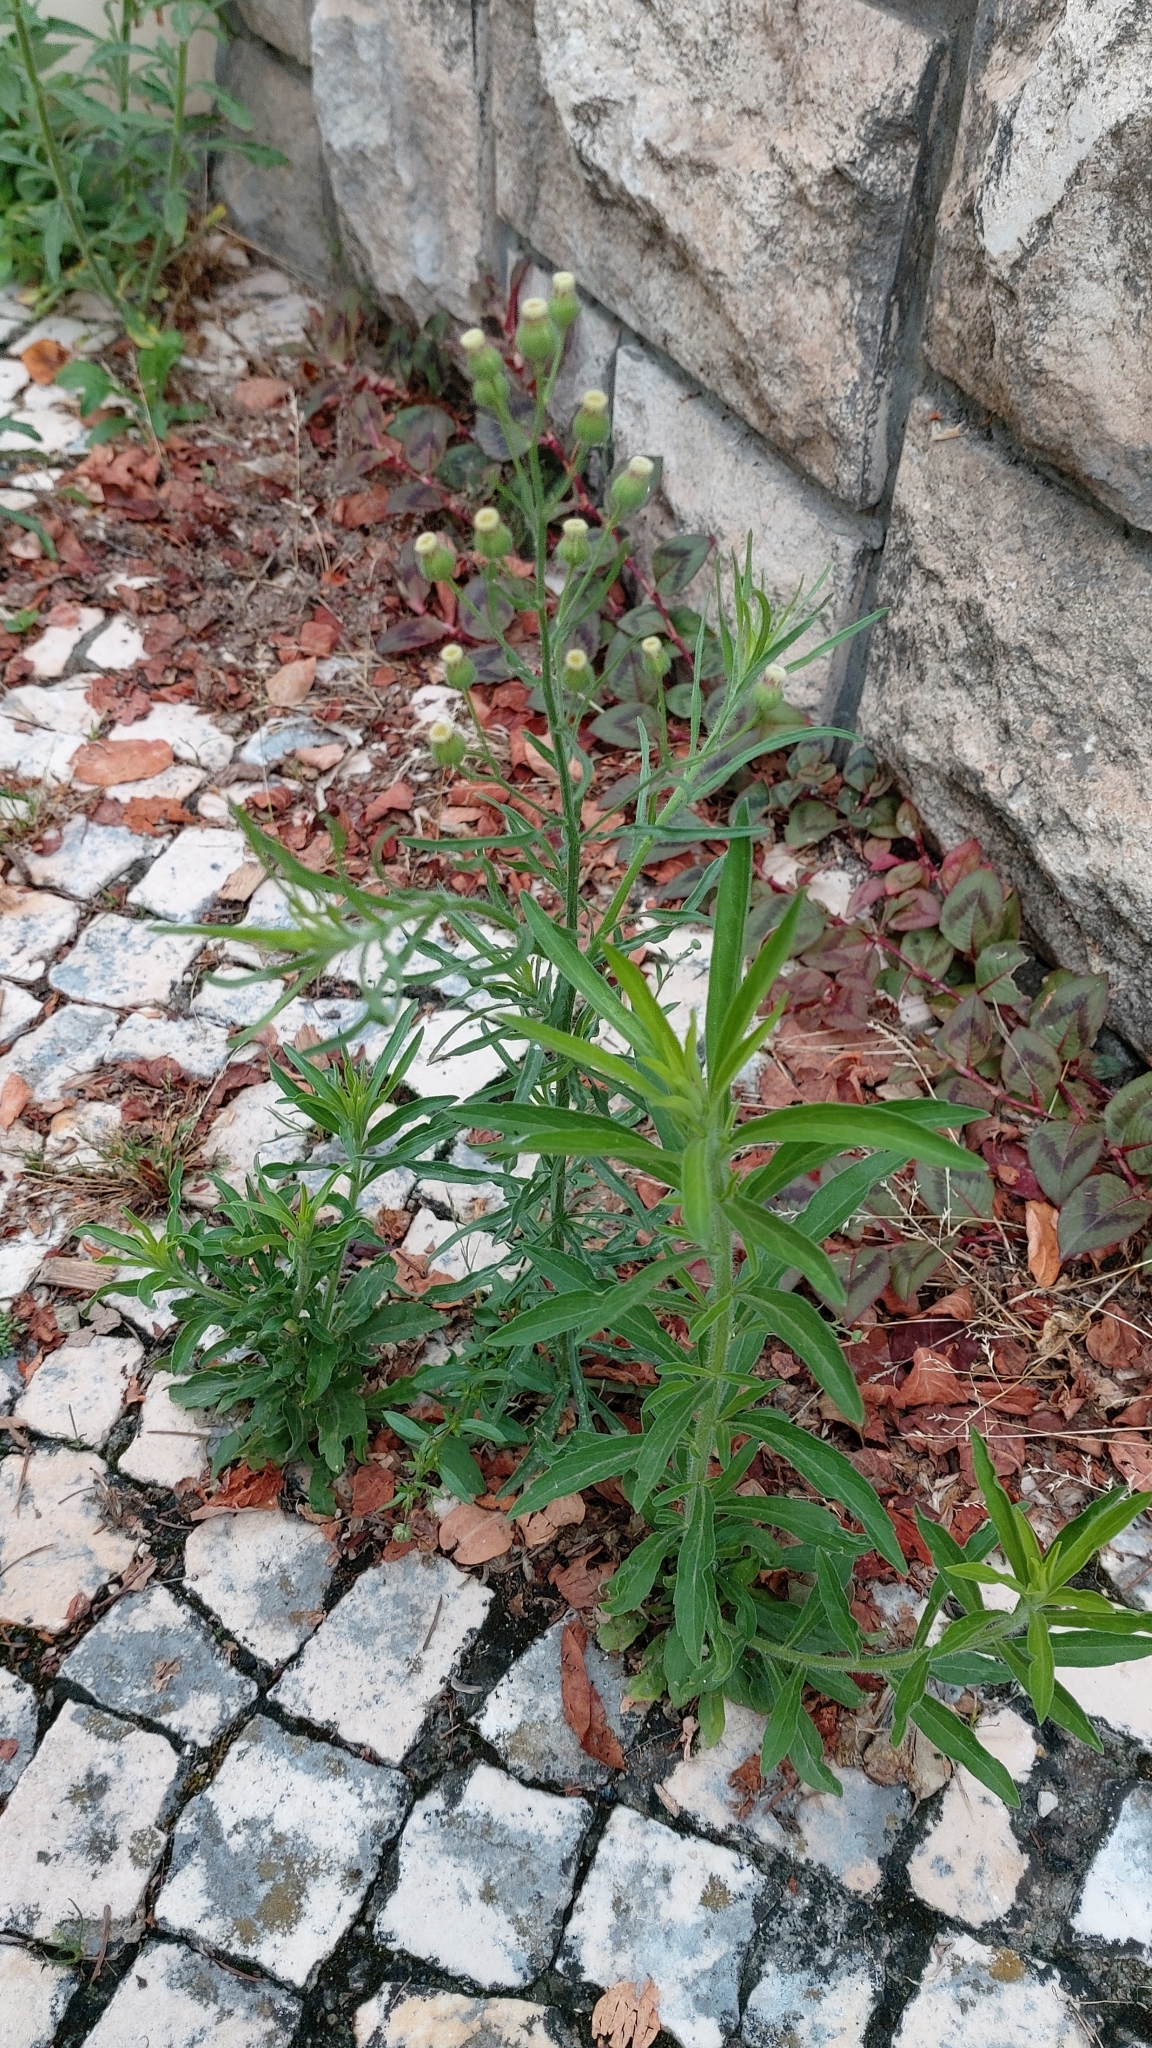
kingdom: Plantae
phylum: Tracheophyta
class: Magnoliopsida
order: Asterales
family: Asteraceae
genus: Erigeron
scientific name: Erigeron bonariensis
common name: Argentine fleabane
